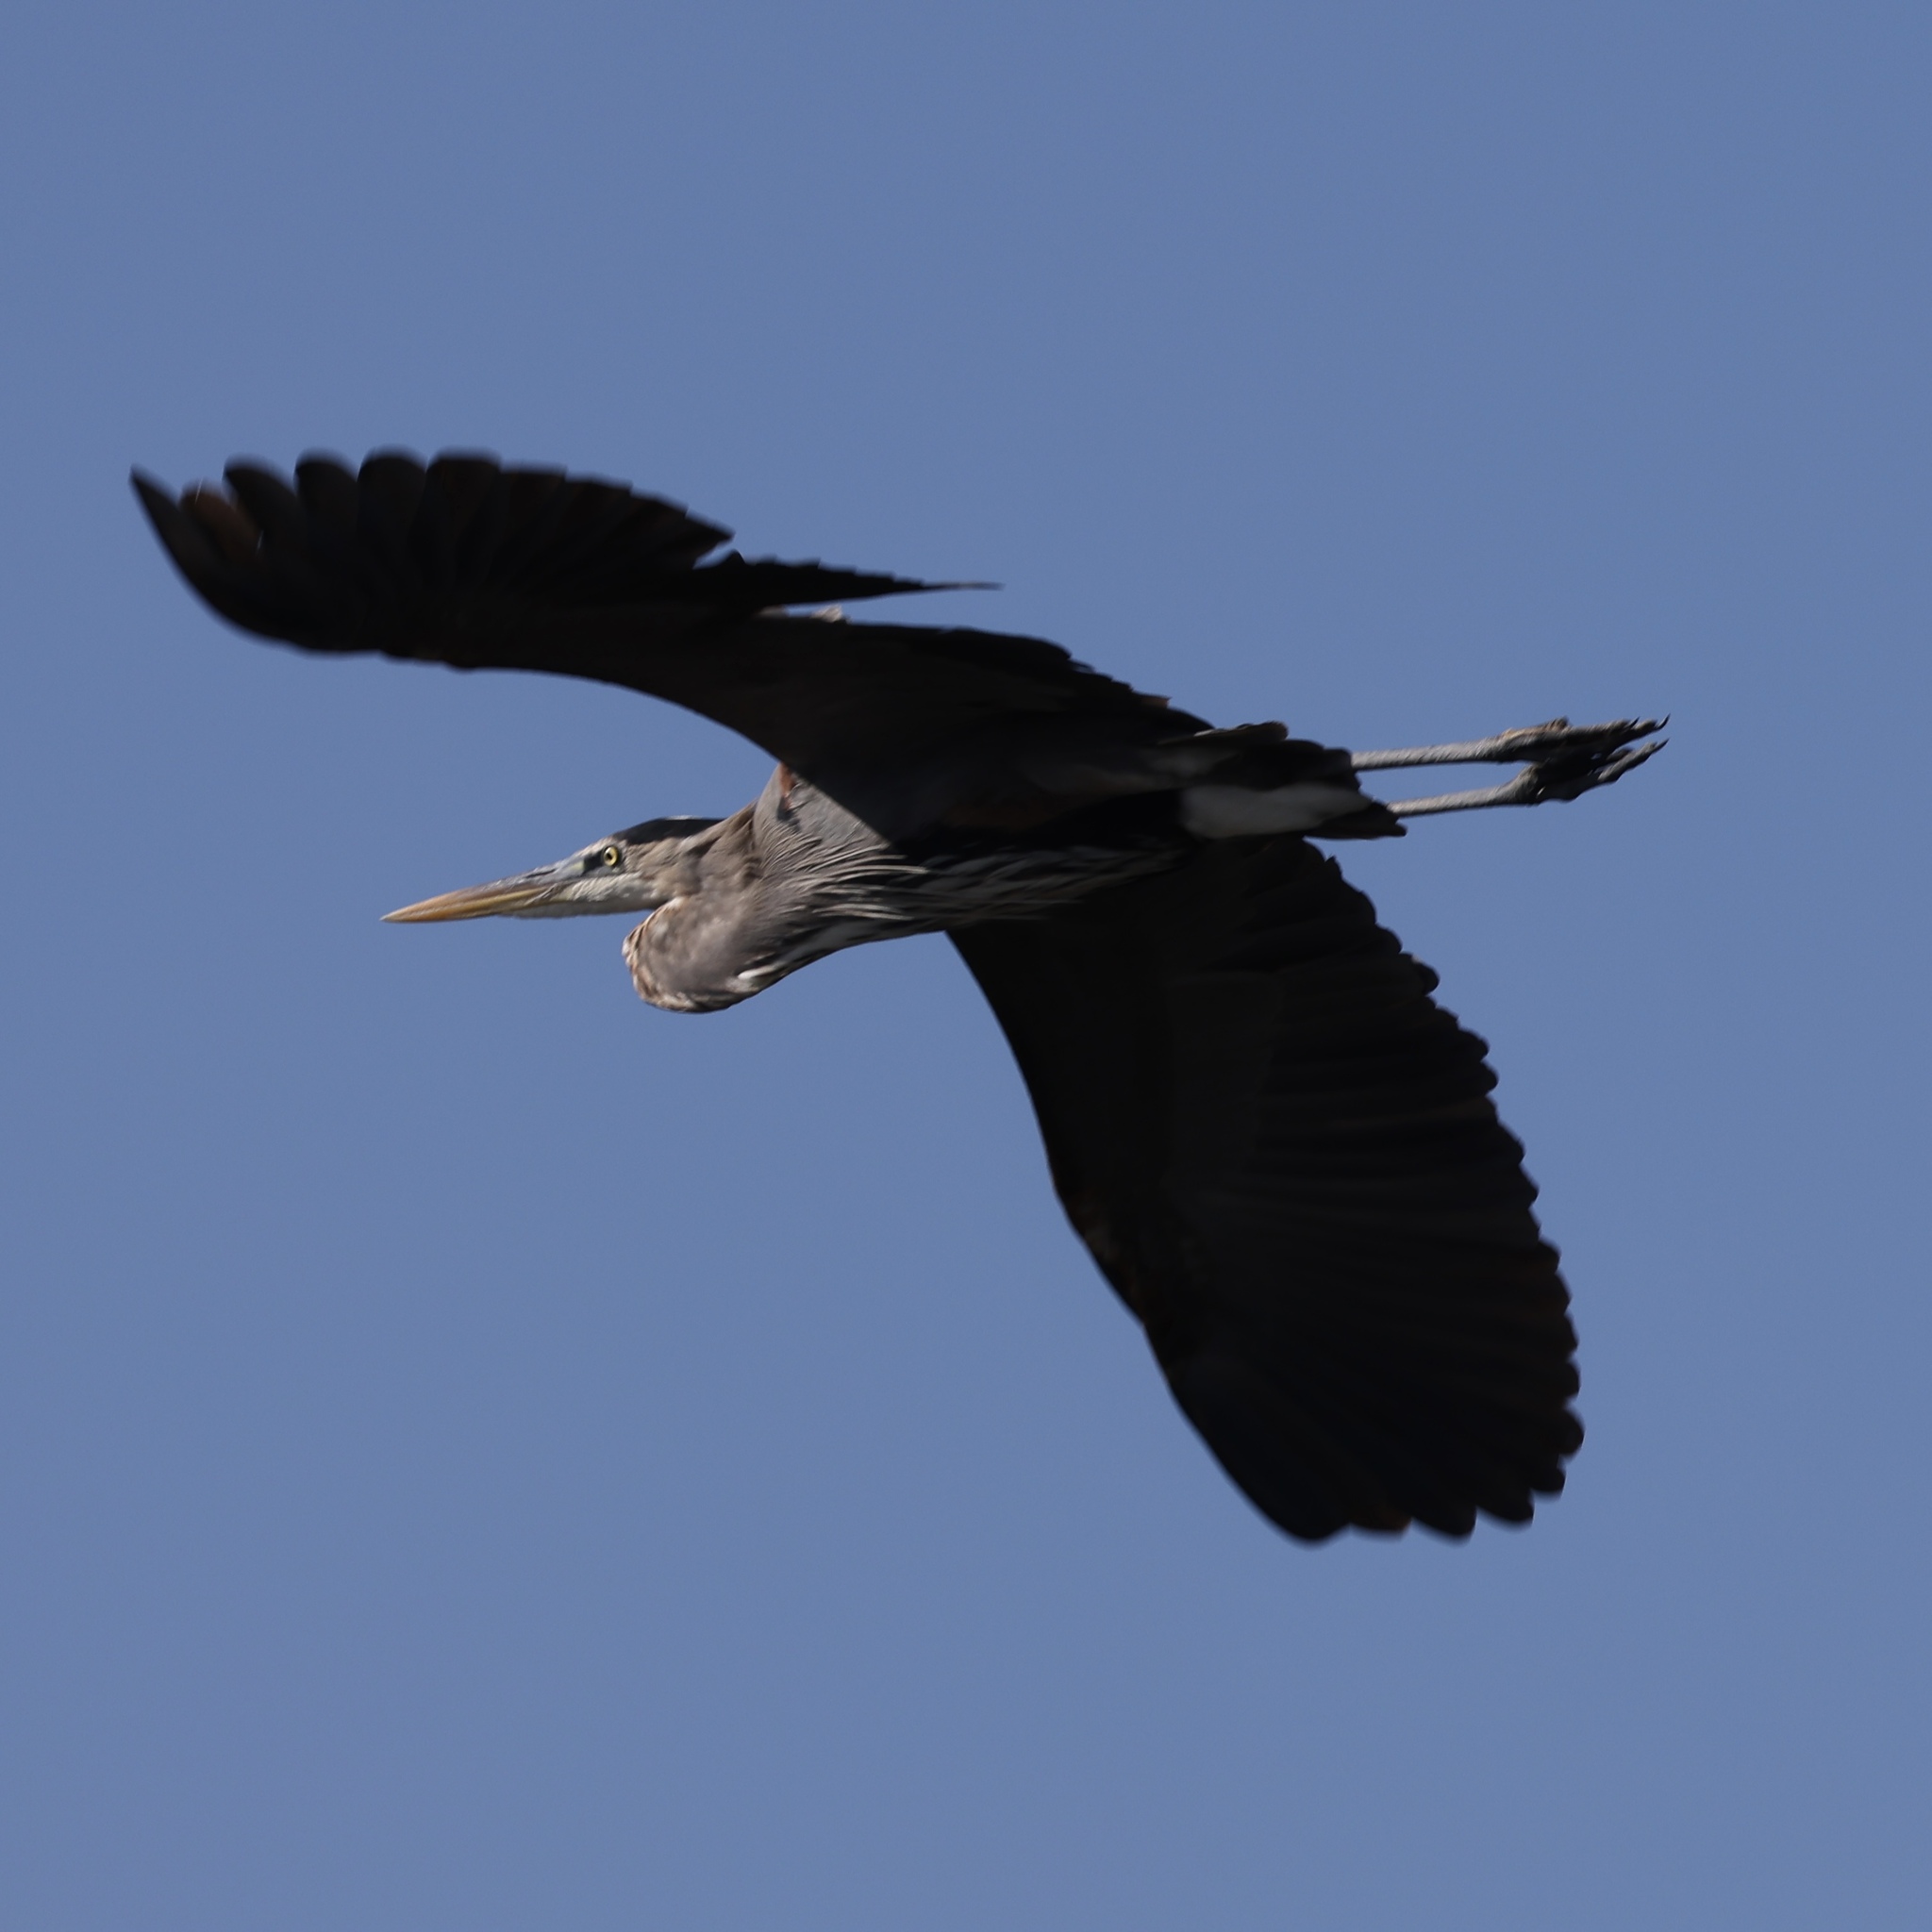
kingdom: Animalia
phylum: Chordata
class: Aves
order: Pelecaniformes
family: Ardeidae
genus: Ardea
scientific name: Ardea herodias
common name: Great blue heron
